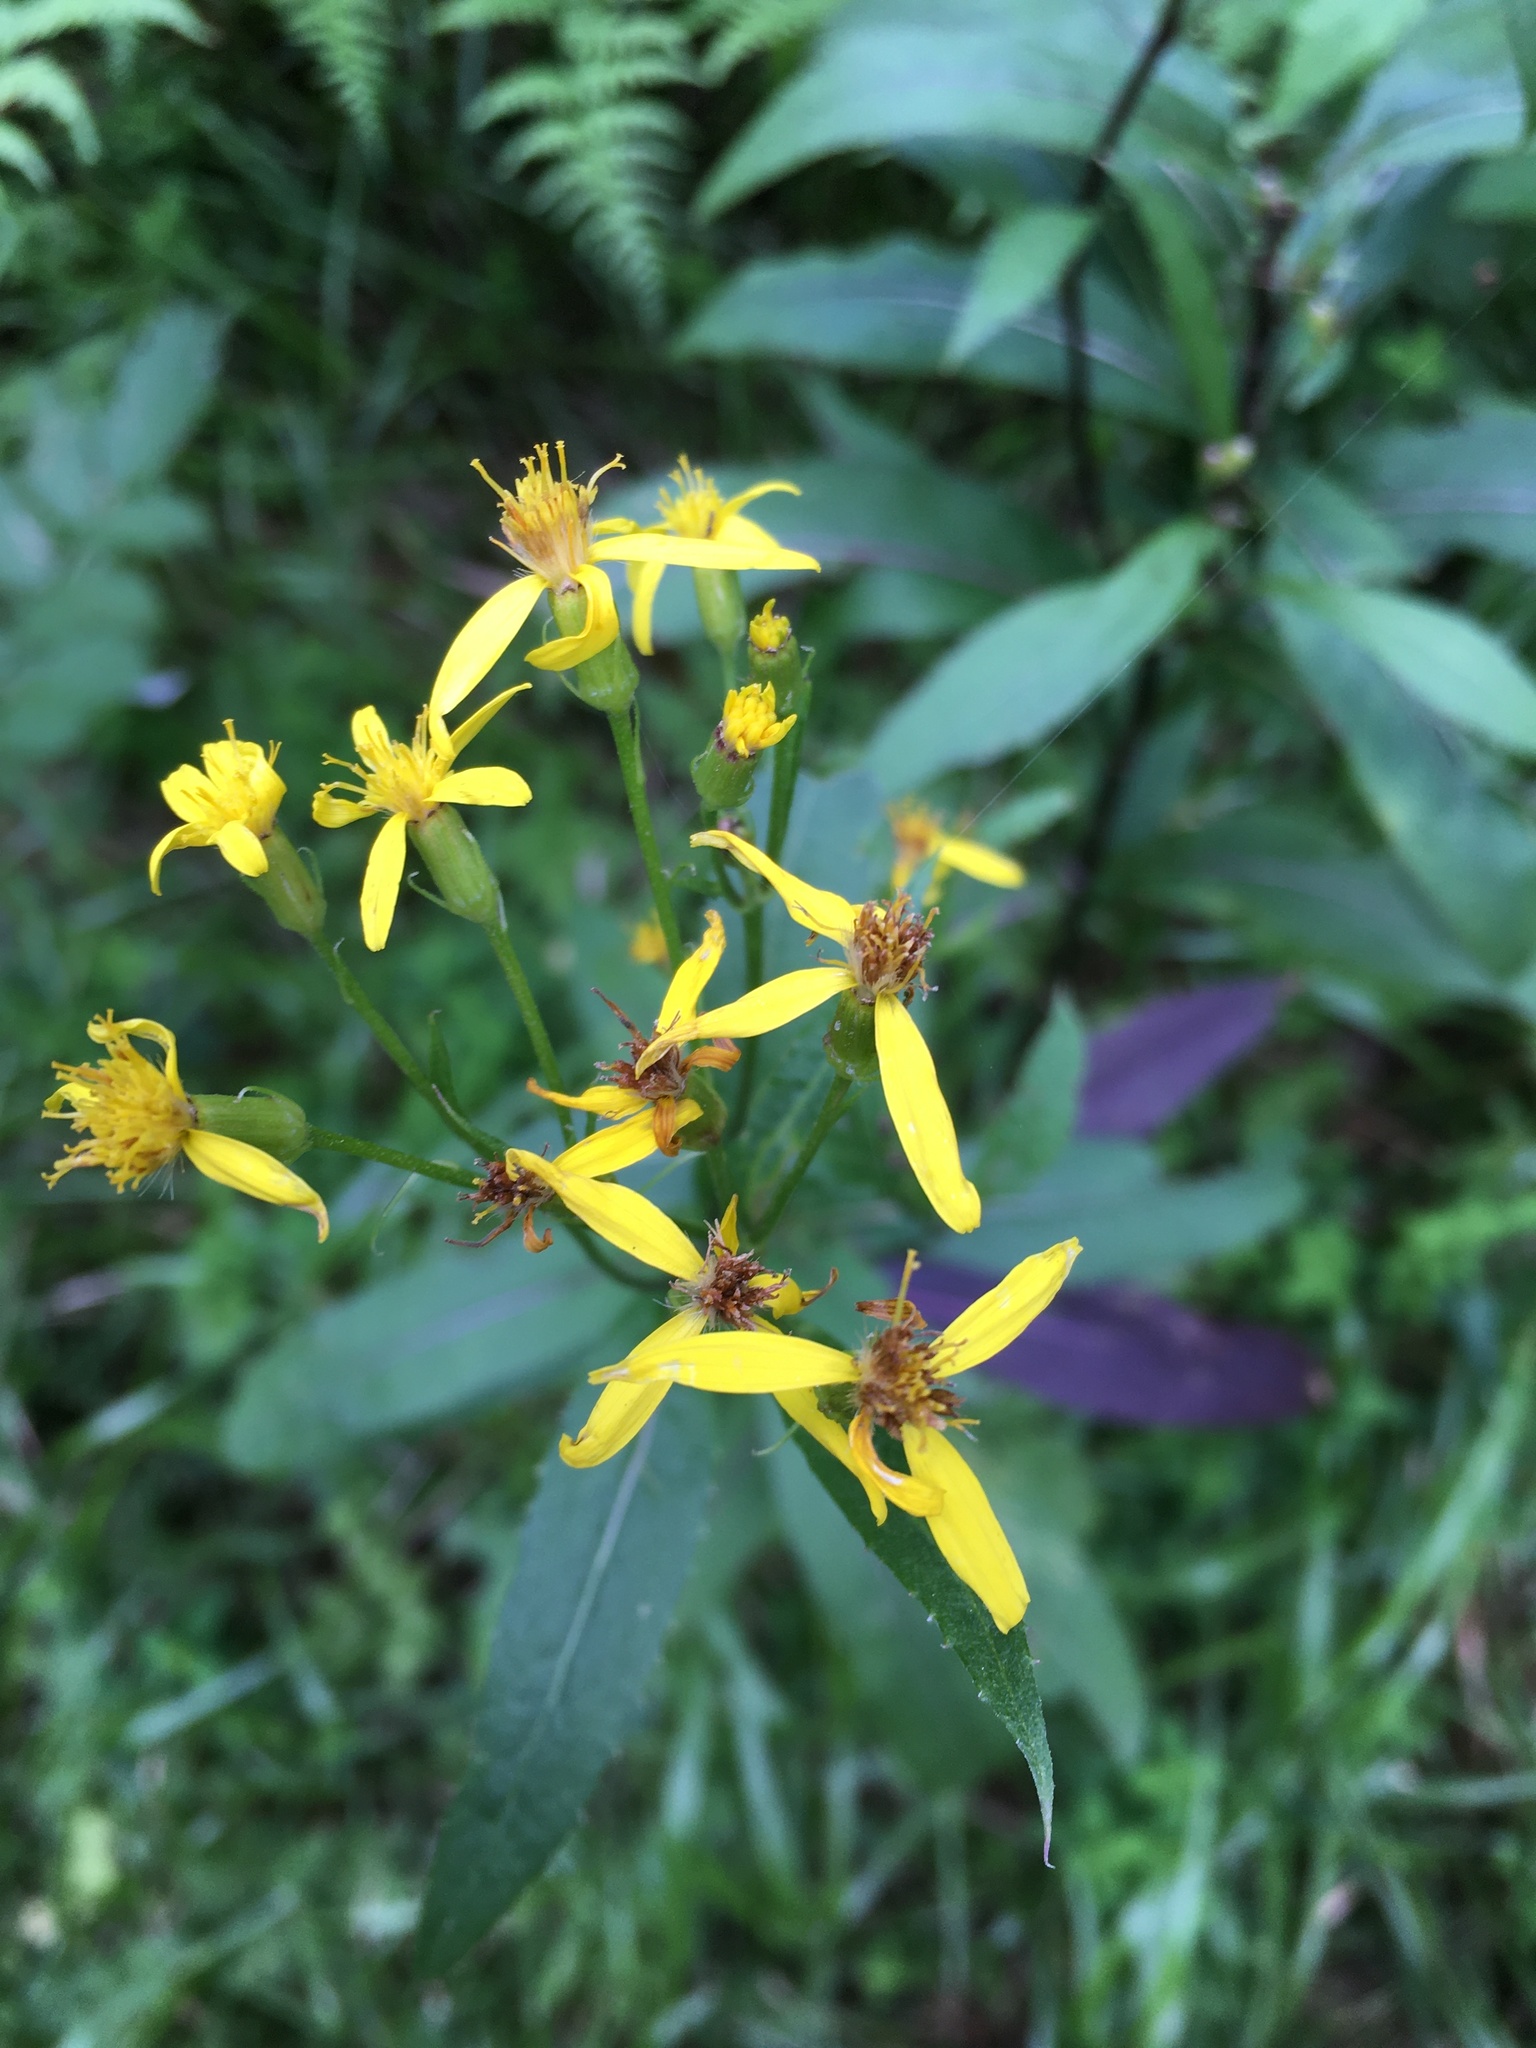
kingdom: Plantae
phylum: Tracheophyta
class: Magnoliopsida
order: Asterales
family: Asteraceae
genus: Senecio
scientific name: Senecio ovatus
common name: Wood ragwort
